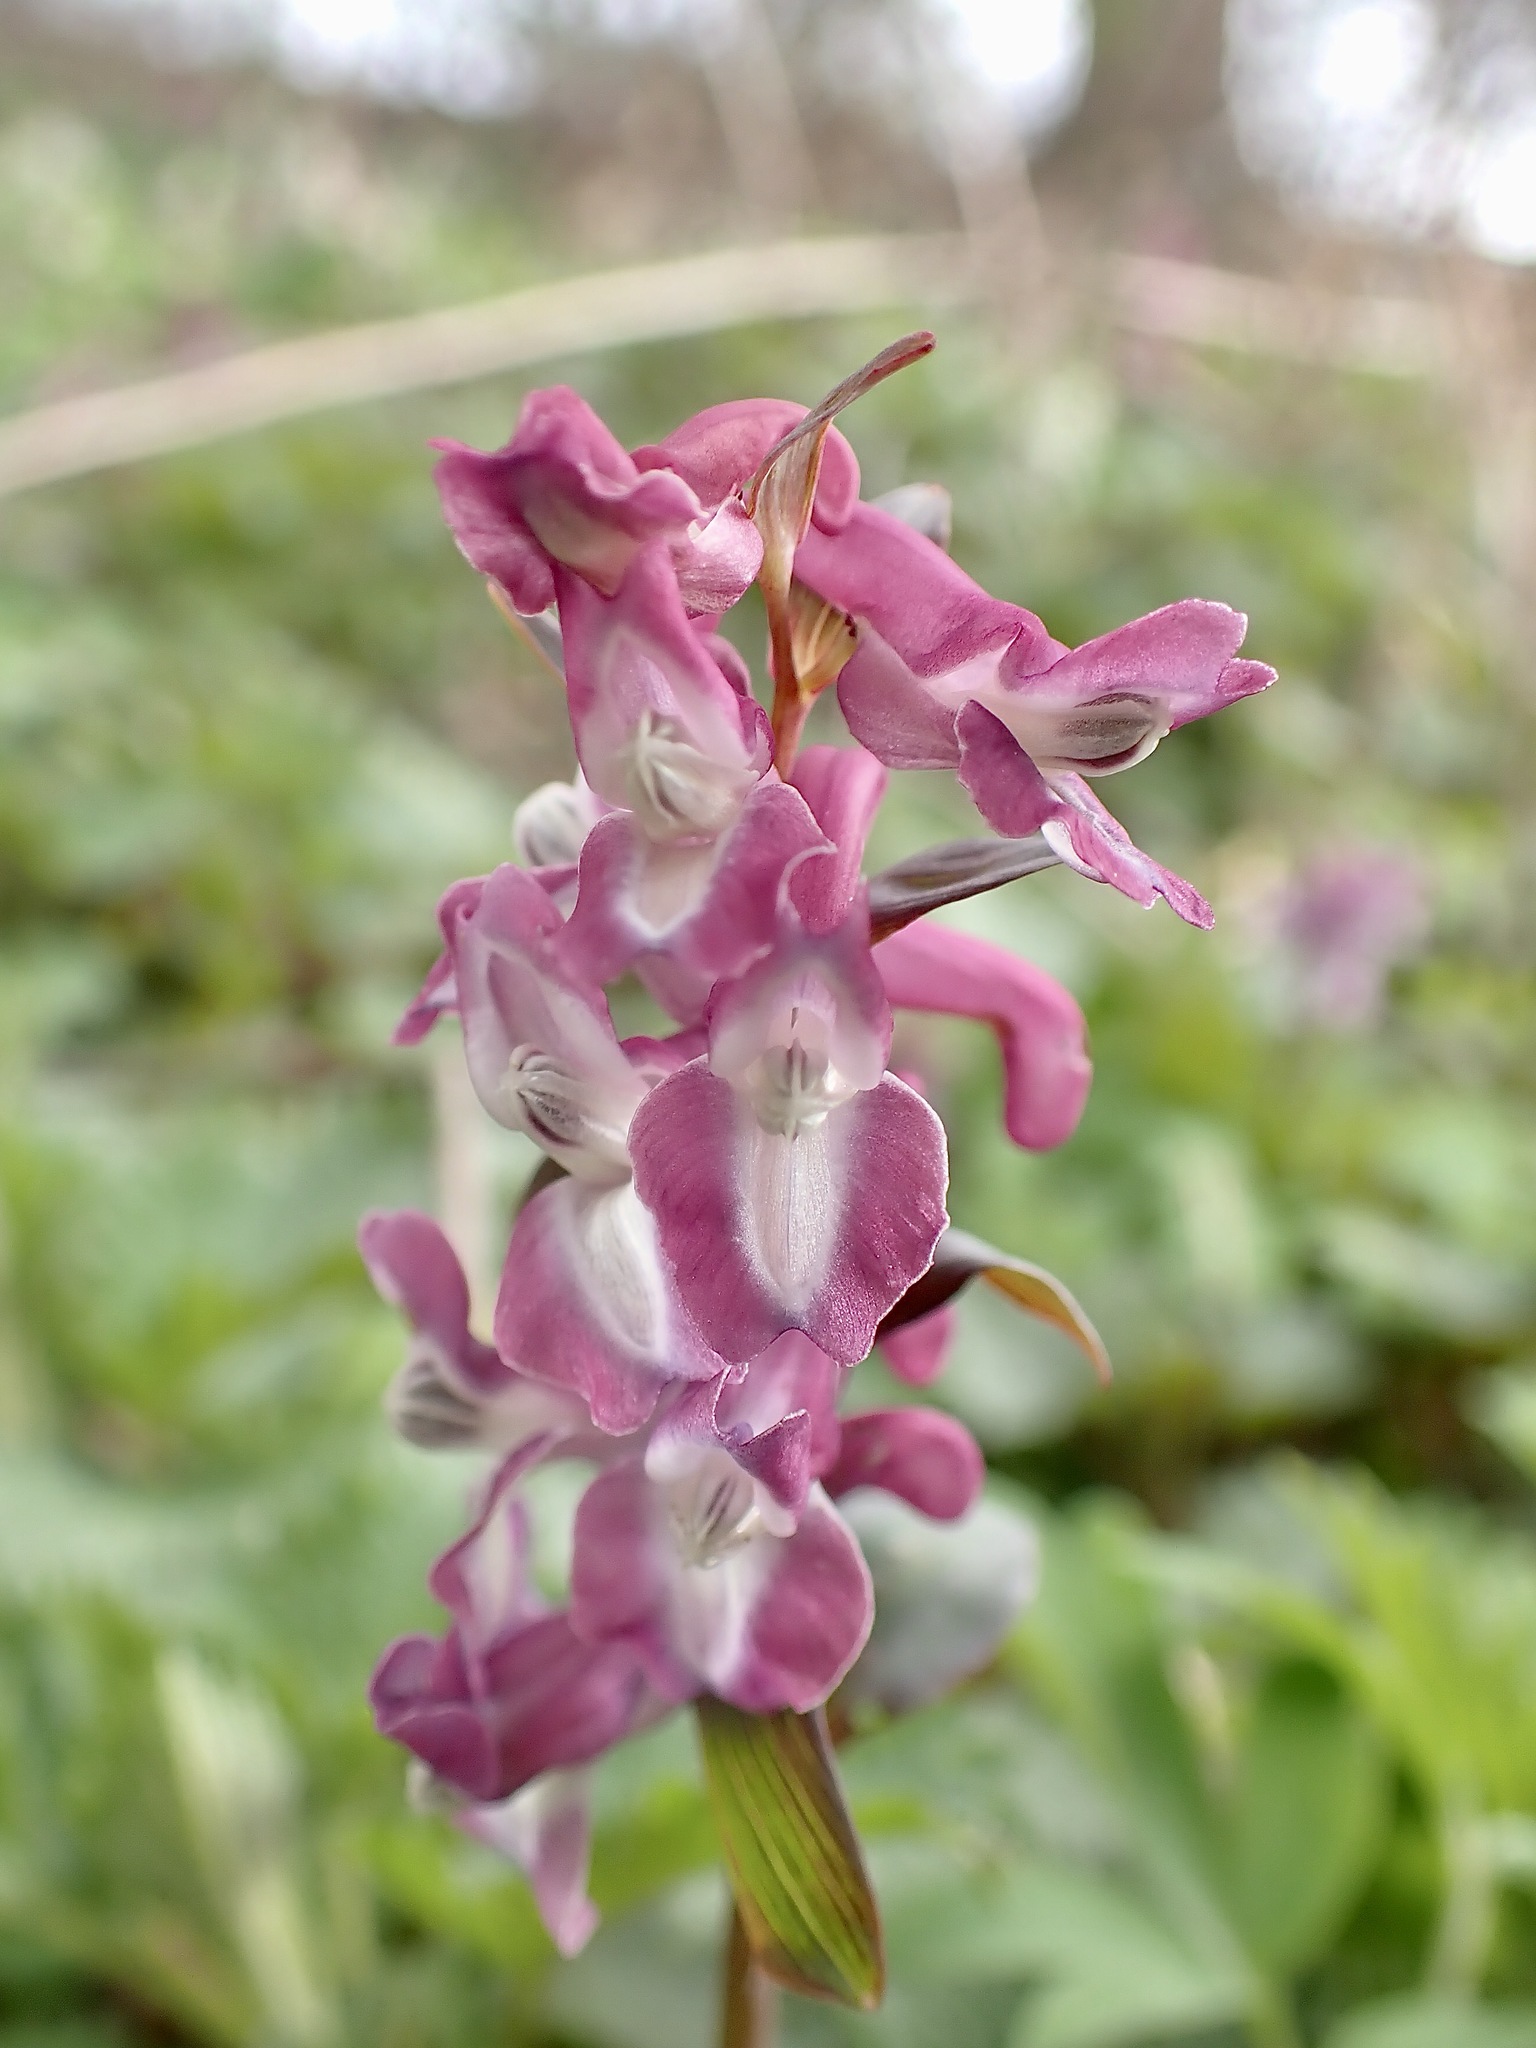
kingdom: Plantae
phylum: Tracheophyta
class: Magnoliopsida
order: Ranunculales
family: Papaveraceae
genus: Corydalis
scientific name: Corydalis cava
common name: Hollowroot
